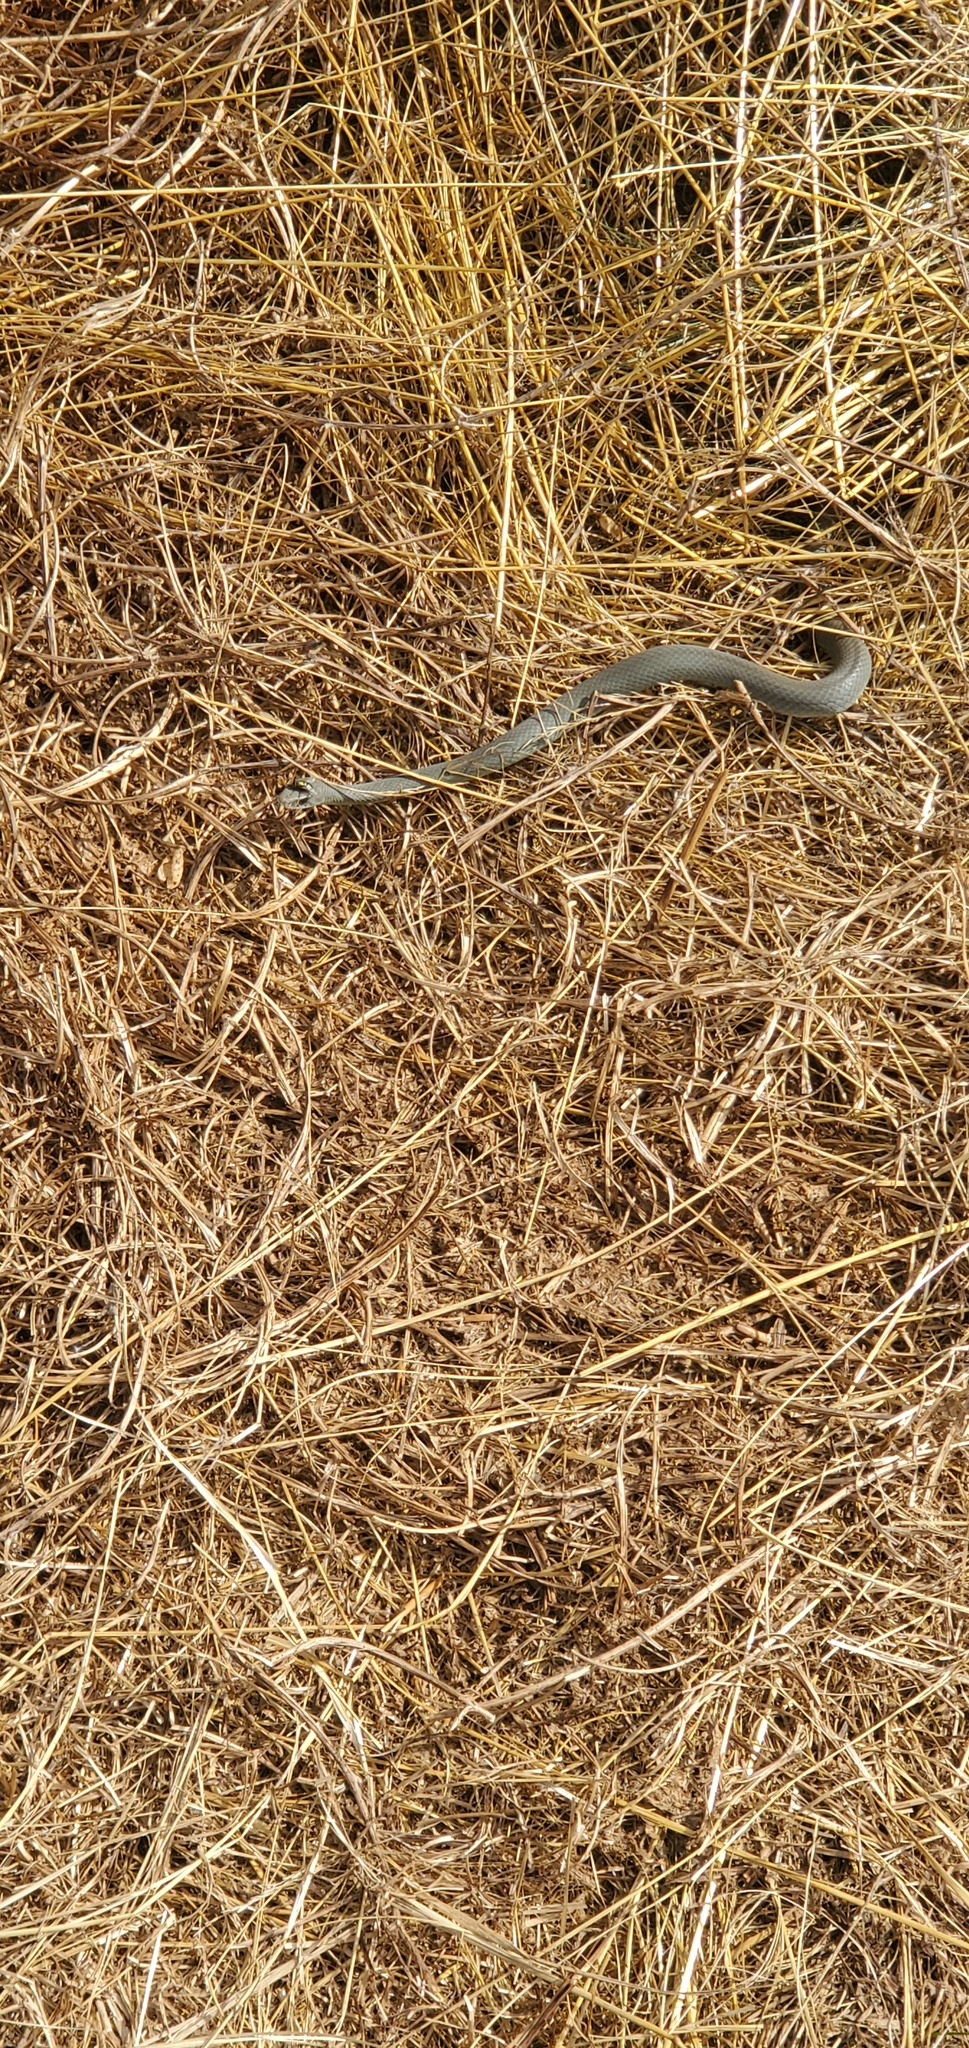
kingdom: Animalia
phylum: Chordata
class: Squamata
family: Colubridae
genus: Coluber
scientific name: Coluber constrictor
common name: Eastern racer
